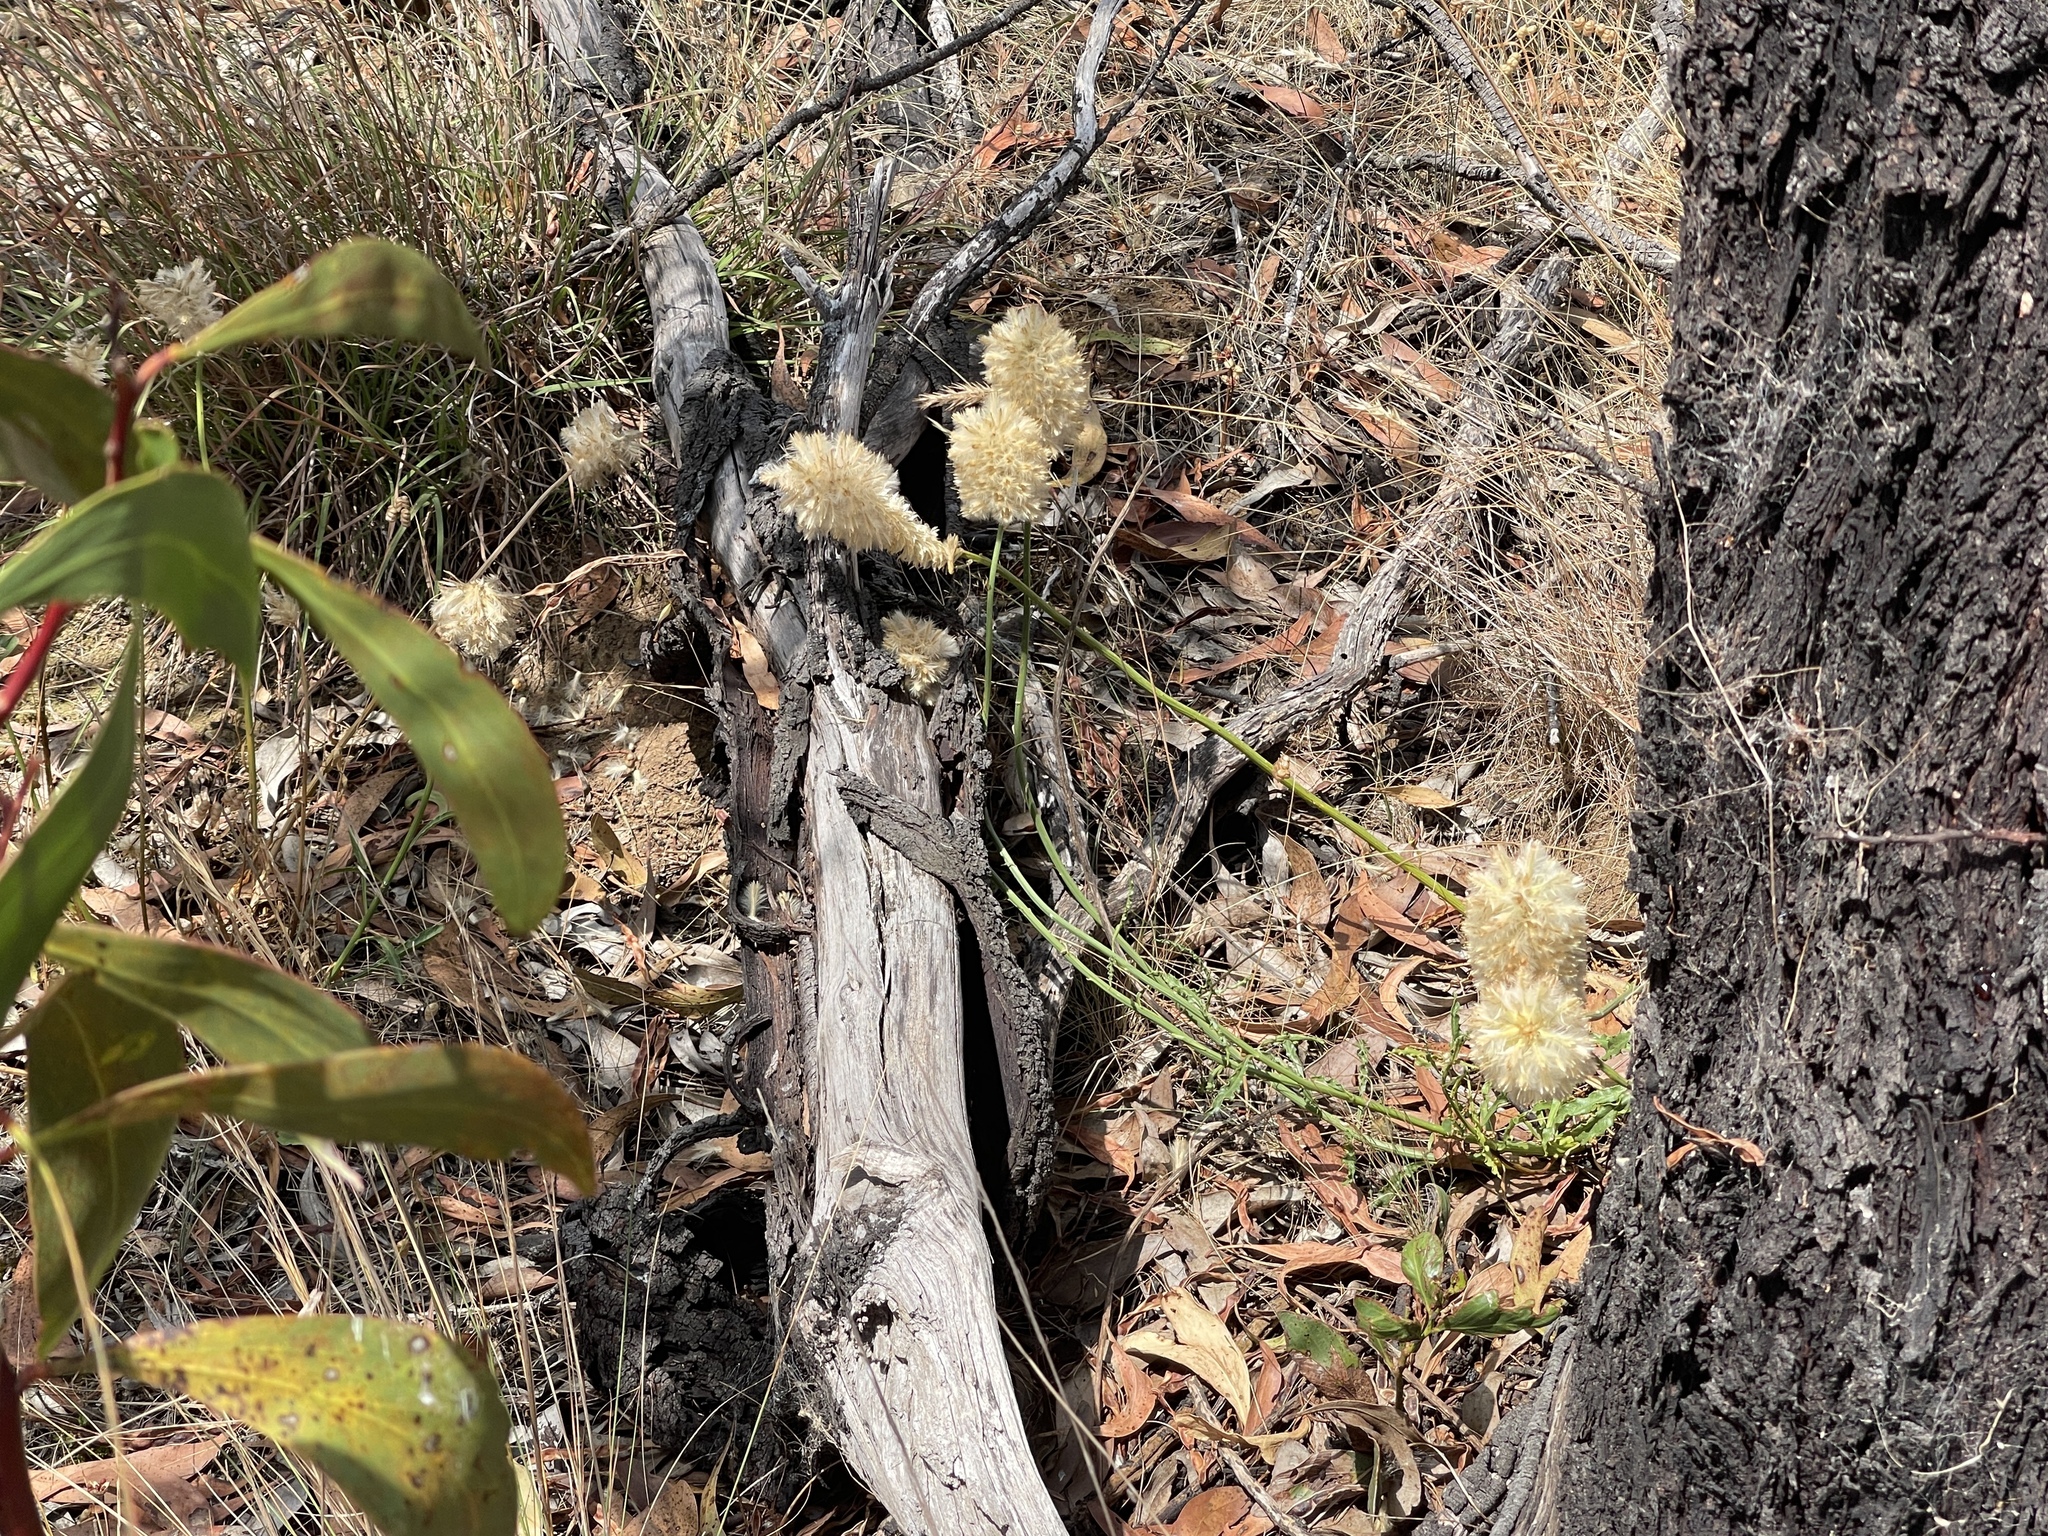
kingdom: Plantae
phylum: Tracheophyta
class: Magnoliopsida
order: Caryophyllales
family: Amaranthaceae
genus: Ptilotus
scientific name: Ptilotus macrocephalus
